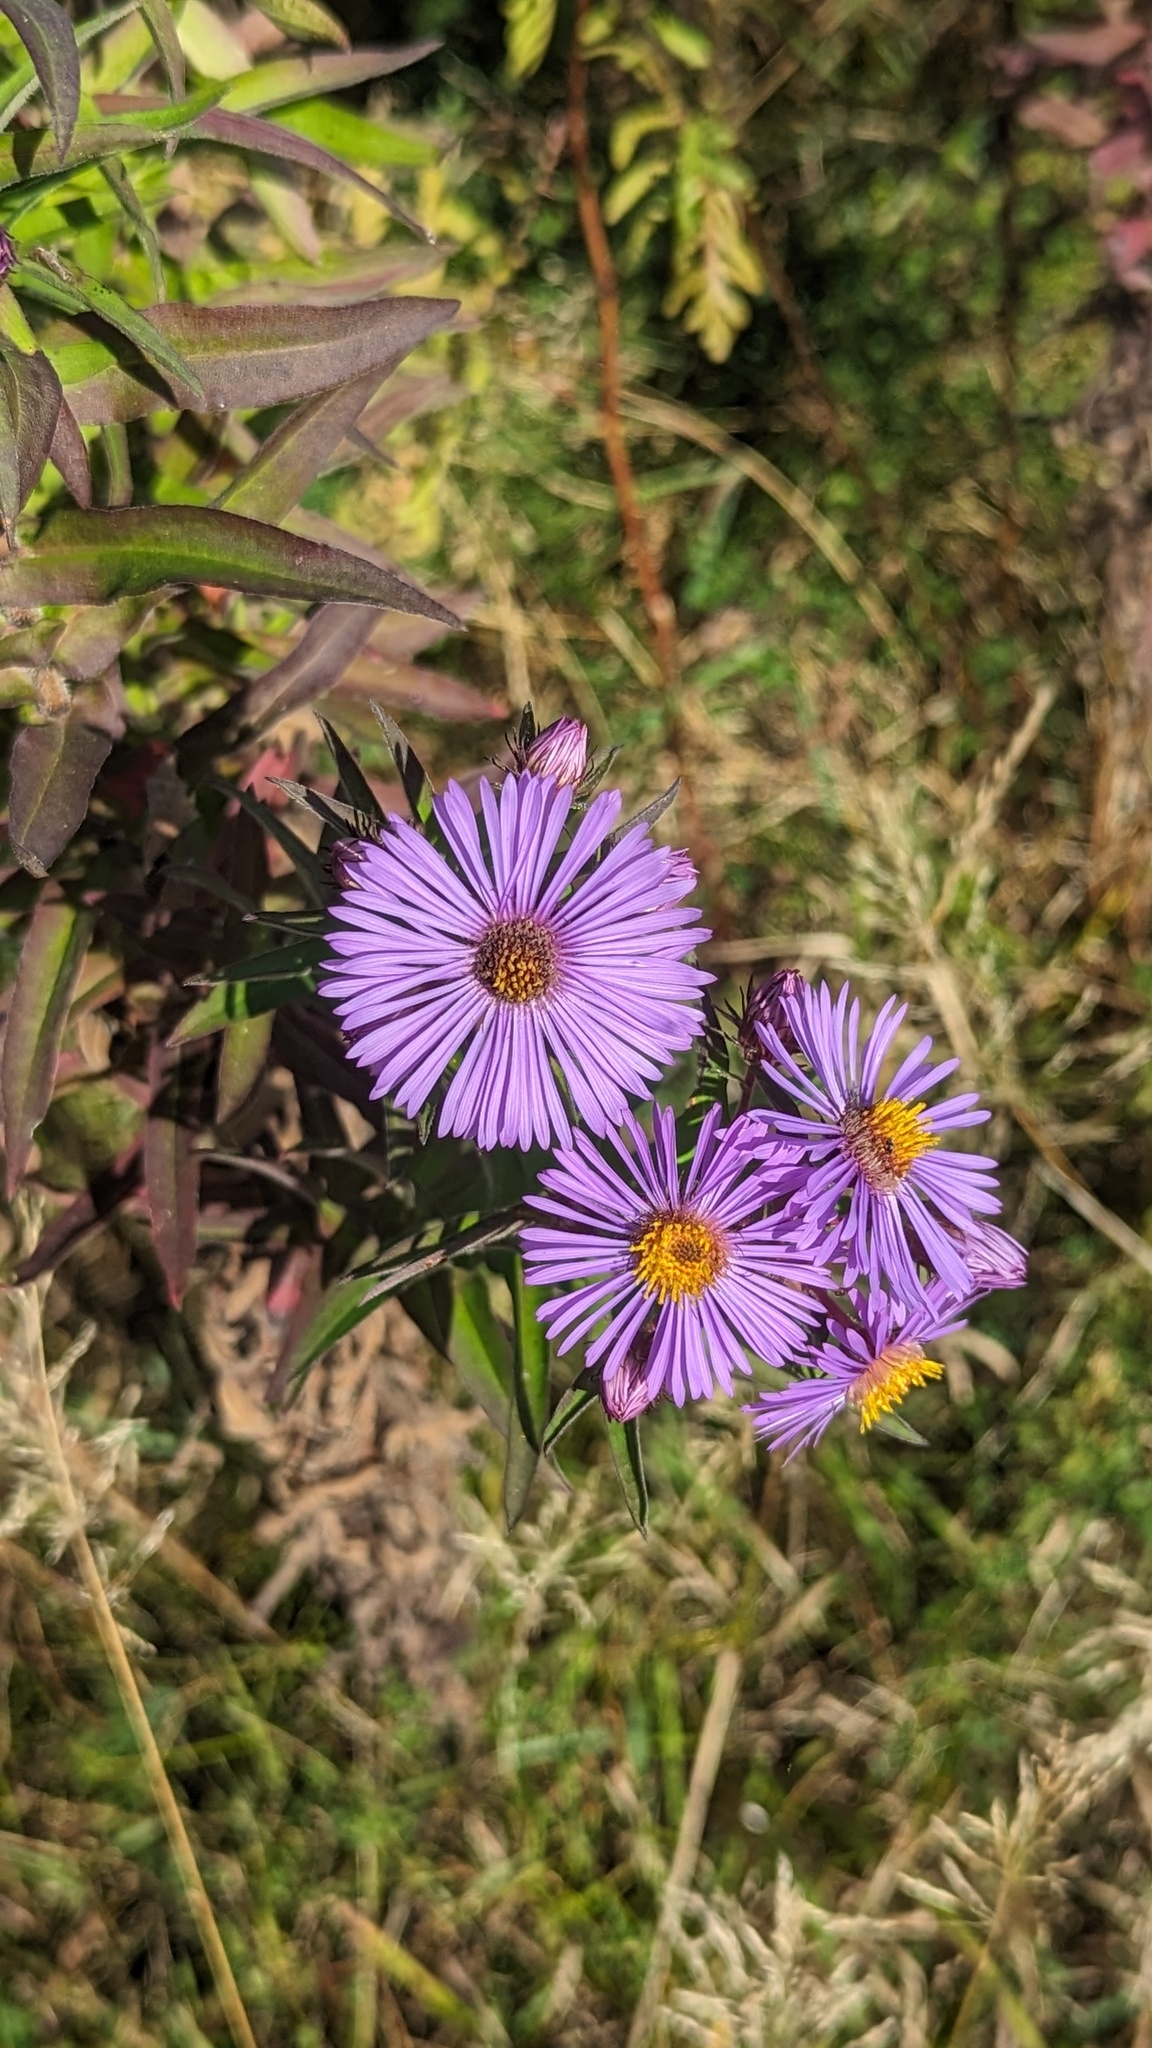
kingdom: Plantae
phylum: Tracheophyta
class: Magnoliopsida
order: Asterales
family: Asteraceae
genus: Symphyotrichum
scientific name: Symphyotrichum novae-angliae
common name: Michaelmas daisy
